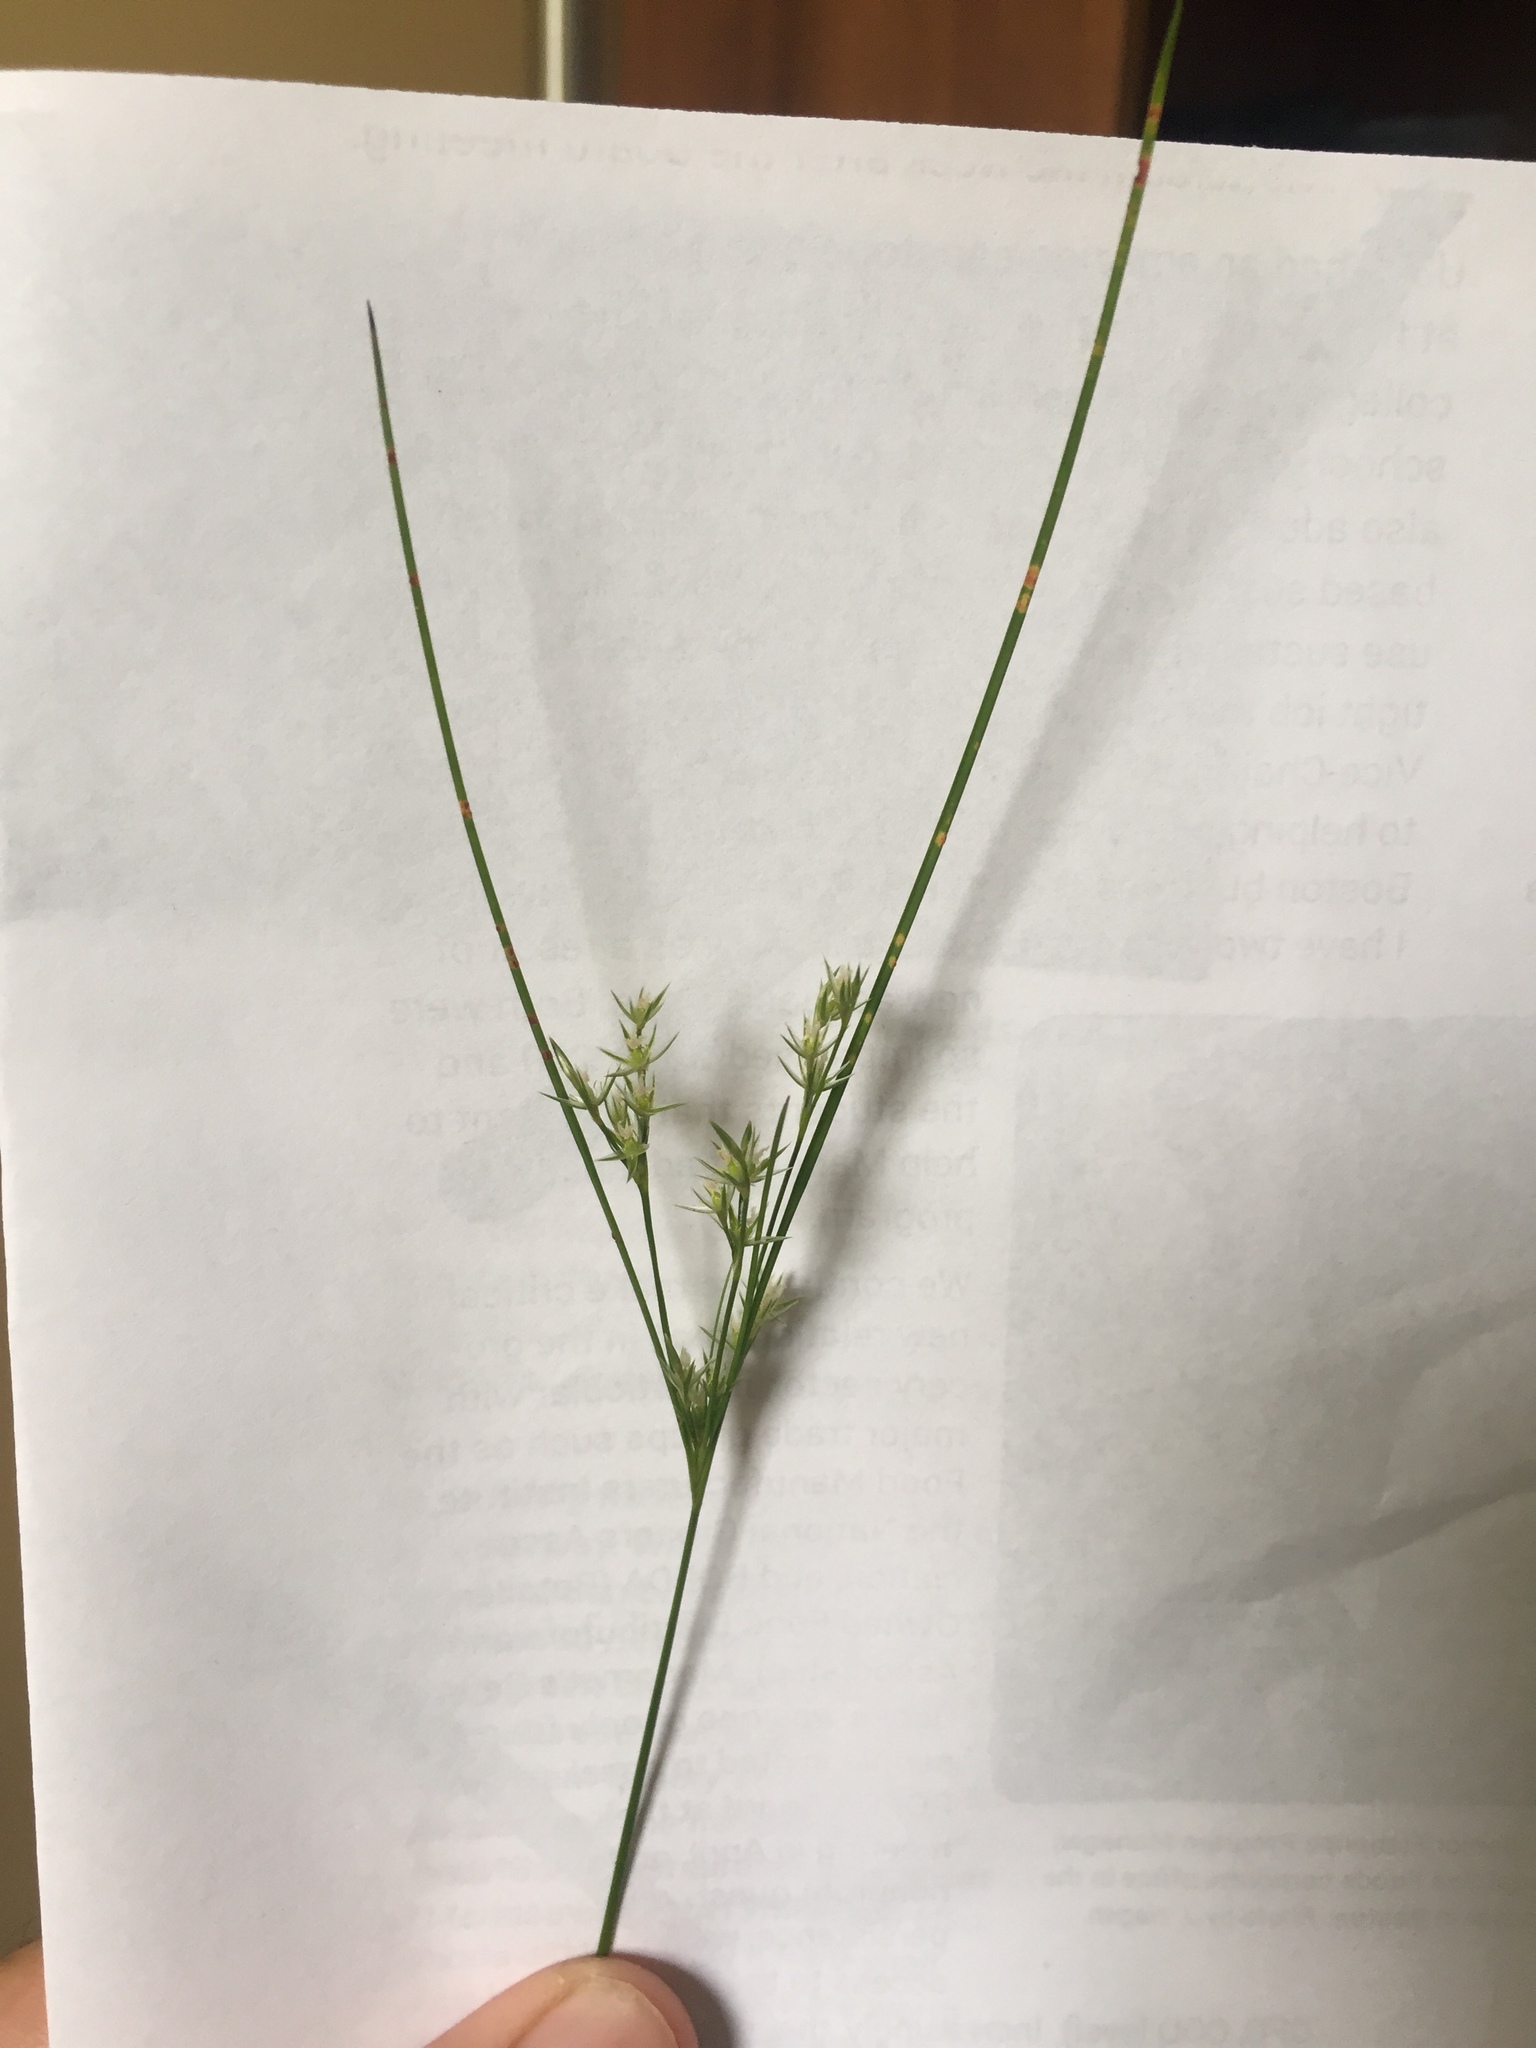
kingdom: Plantae
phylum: Tracheophyta
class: Liliopsida
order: Poales
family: Juncaceae
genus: Juncus
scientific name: Juncus tenuis
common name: Slender rush
